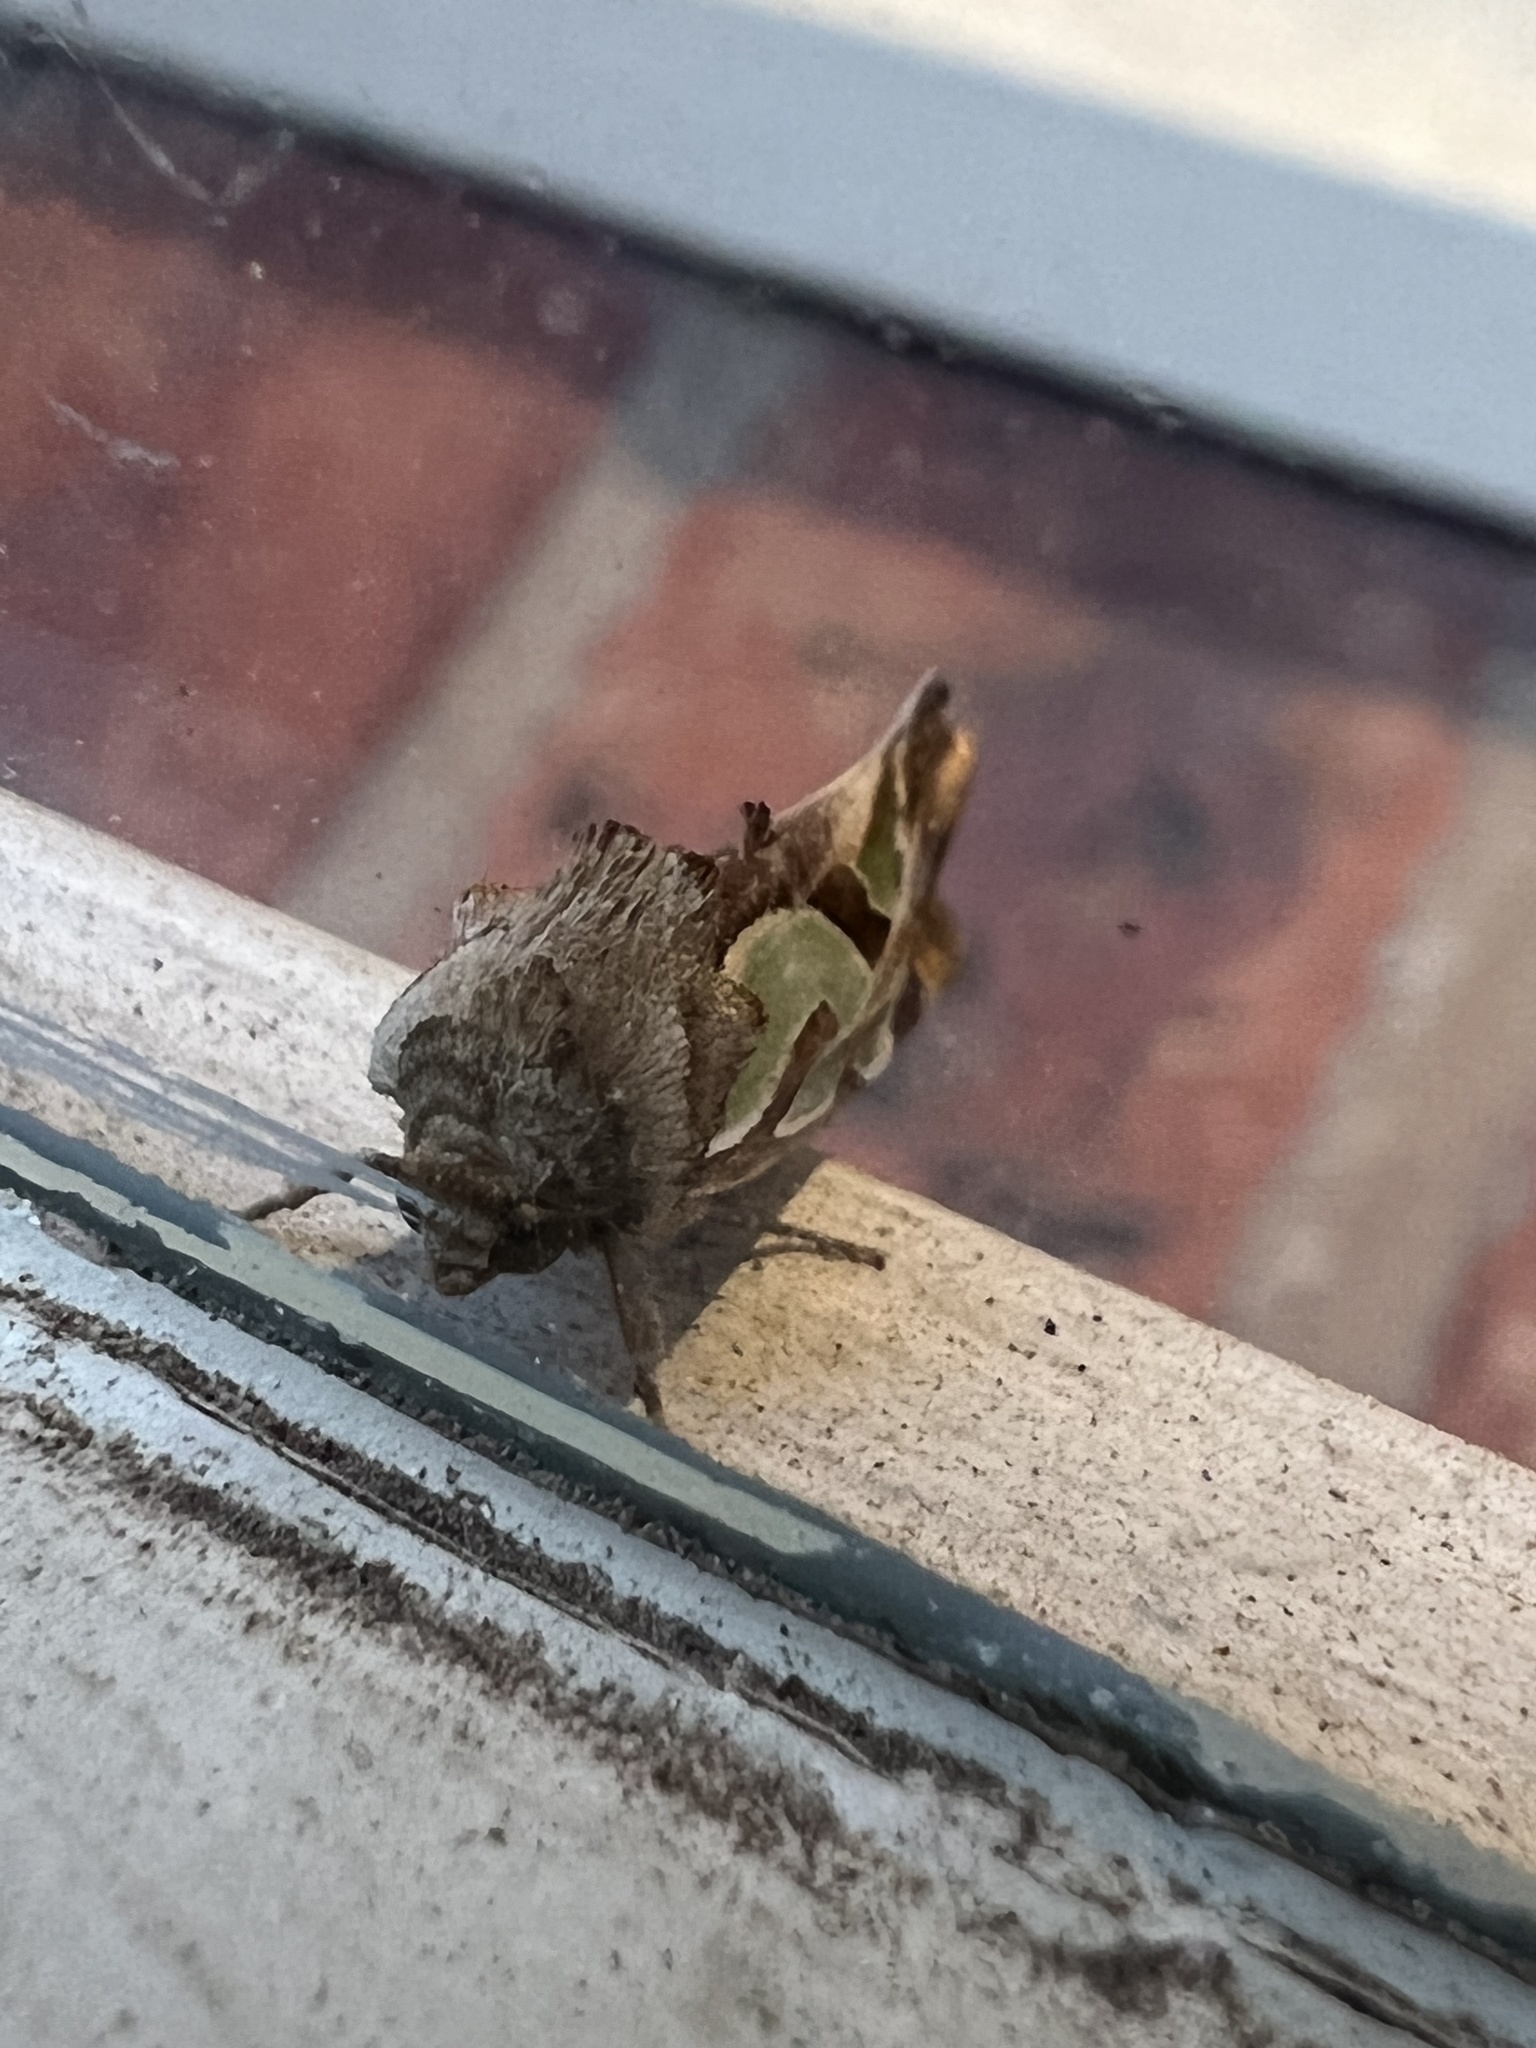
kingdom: Animalia
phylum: Arthropoda
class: Insecta
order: Lepidoptera
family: Noctuidae
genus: Cosmodes
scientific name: Cosmodes elegans
